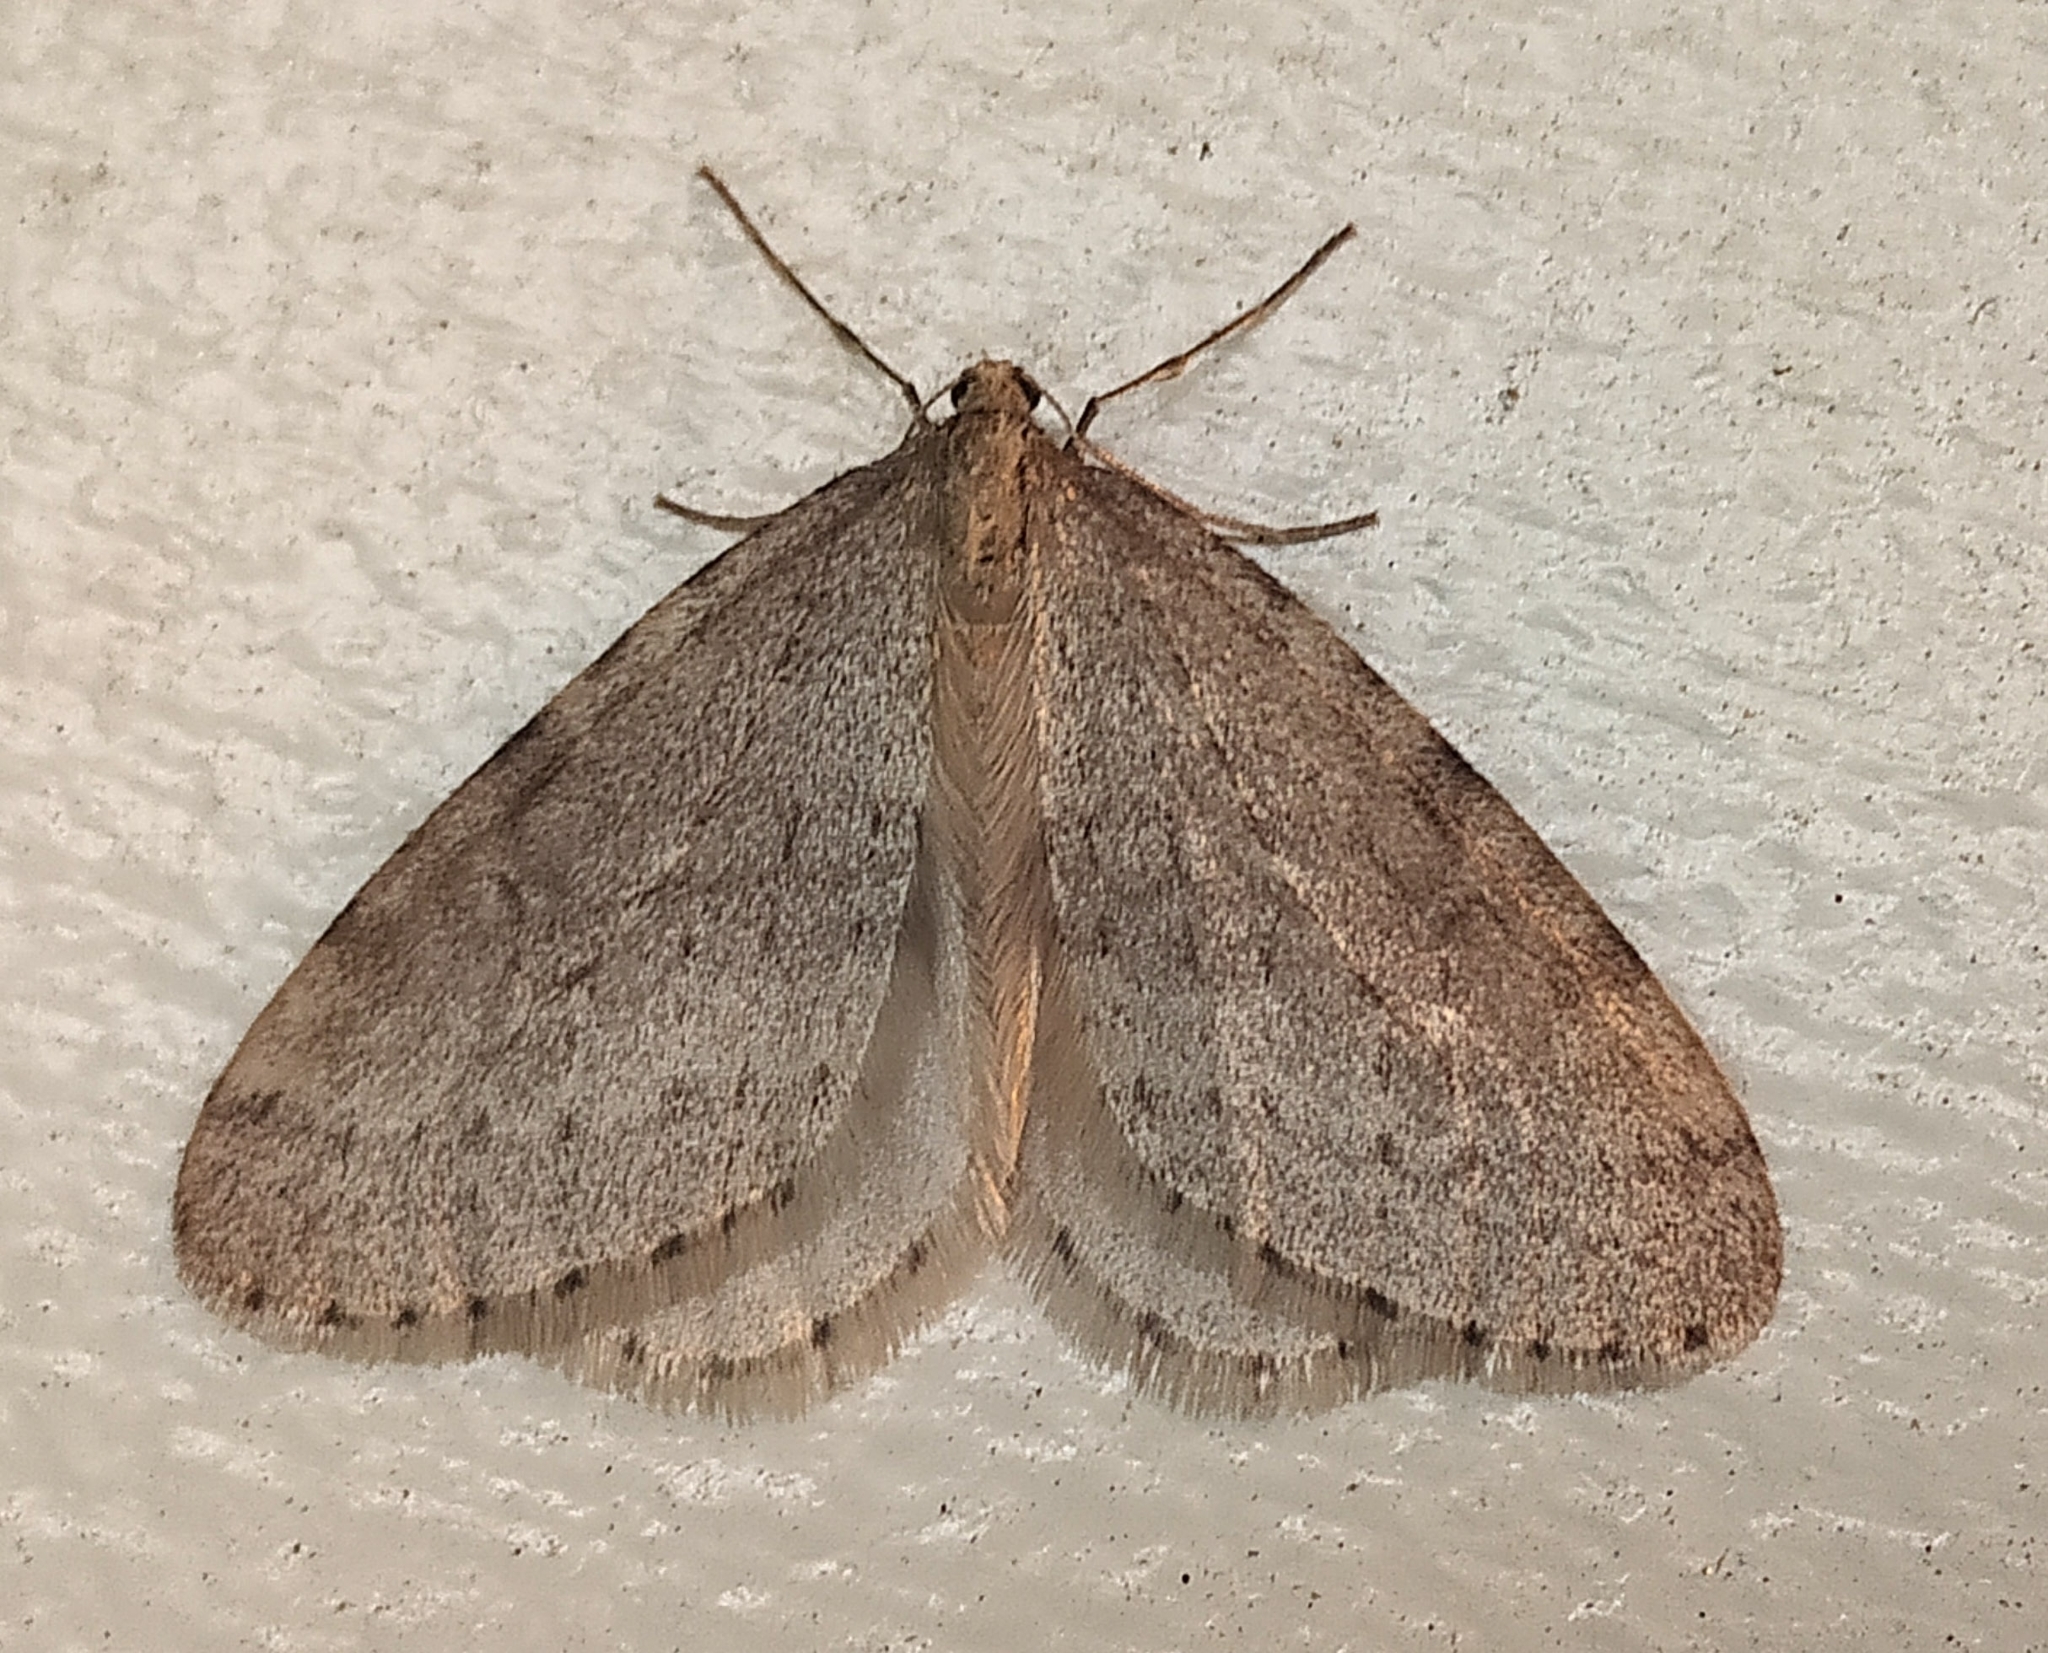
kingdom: Animalia
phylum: Arthropoda
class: Insecta
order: Lepidoptera
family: Geometridae
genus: Operophtera
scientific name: Operophtera bruceata
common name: Bruce spanworm
